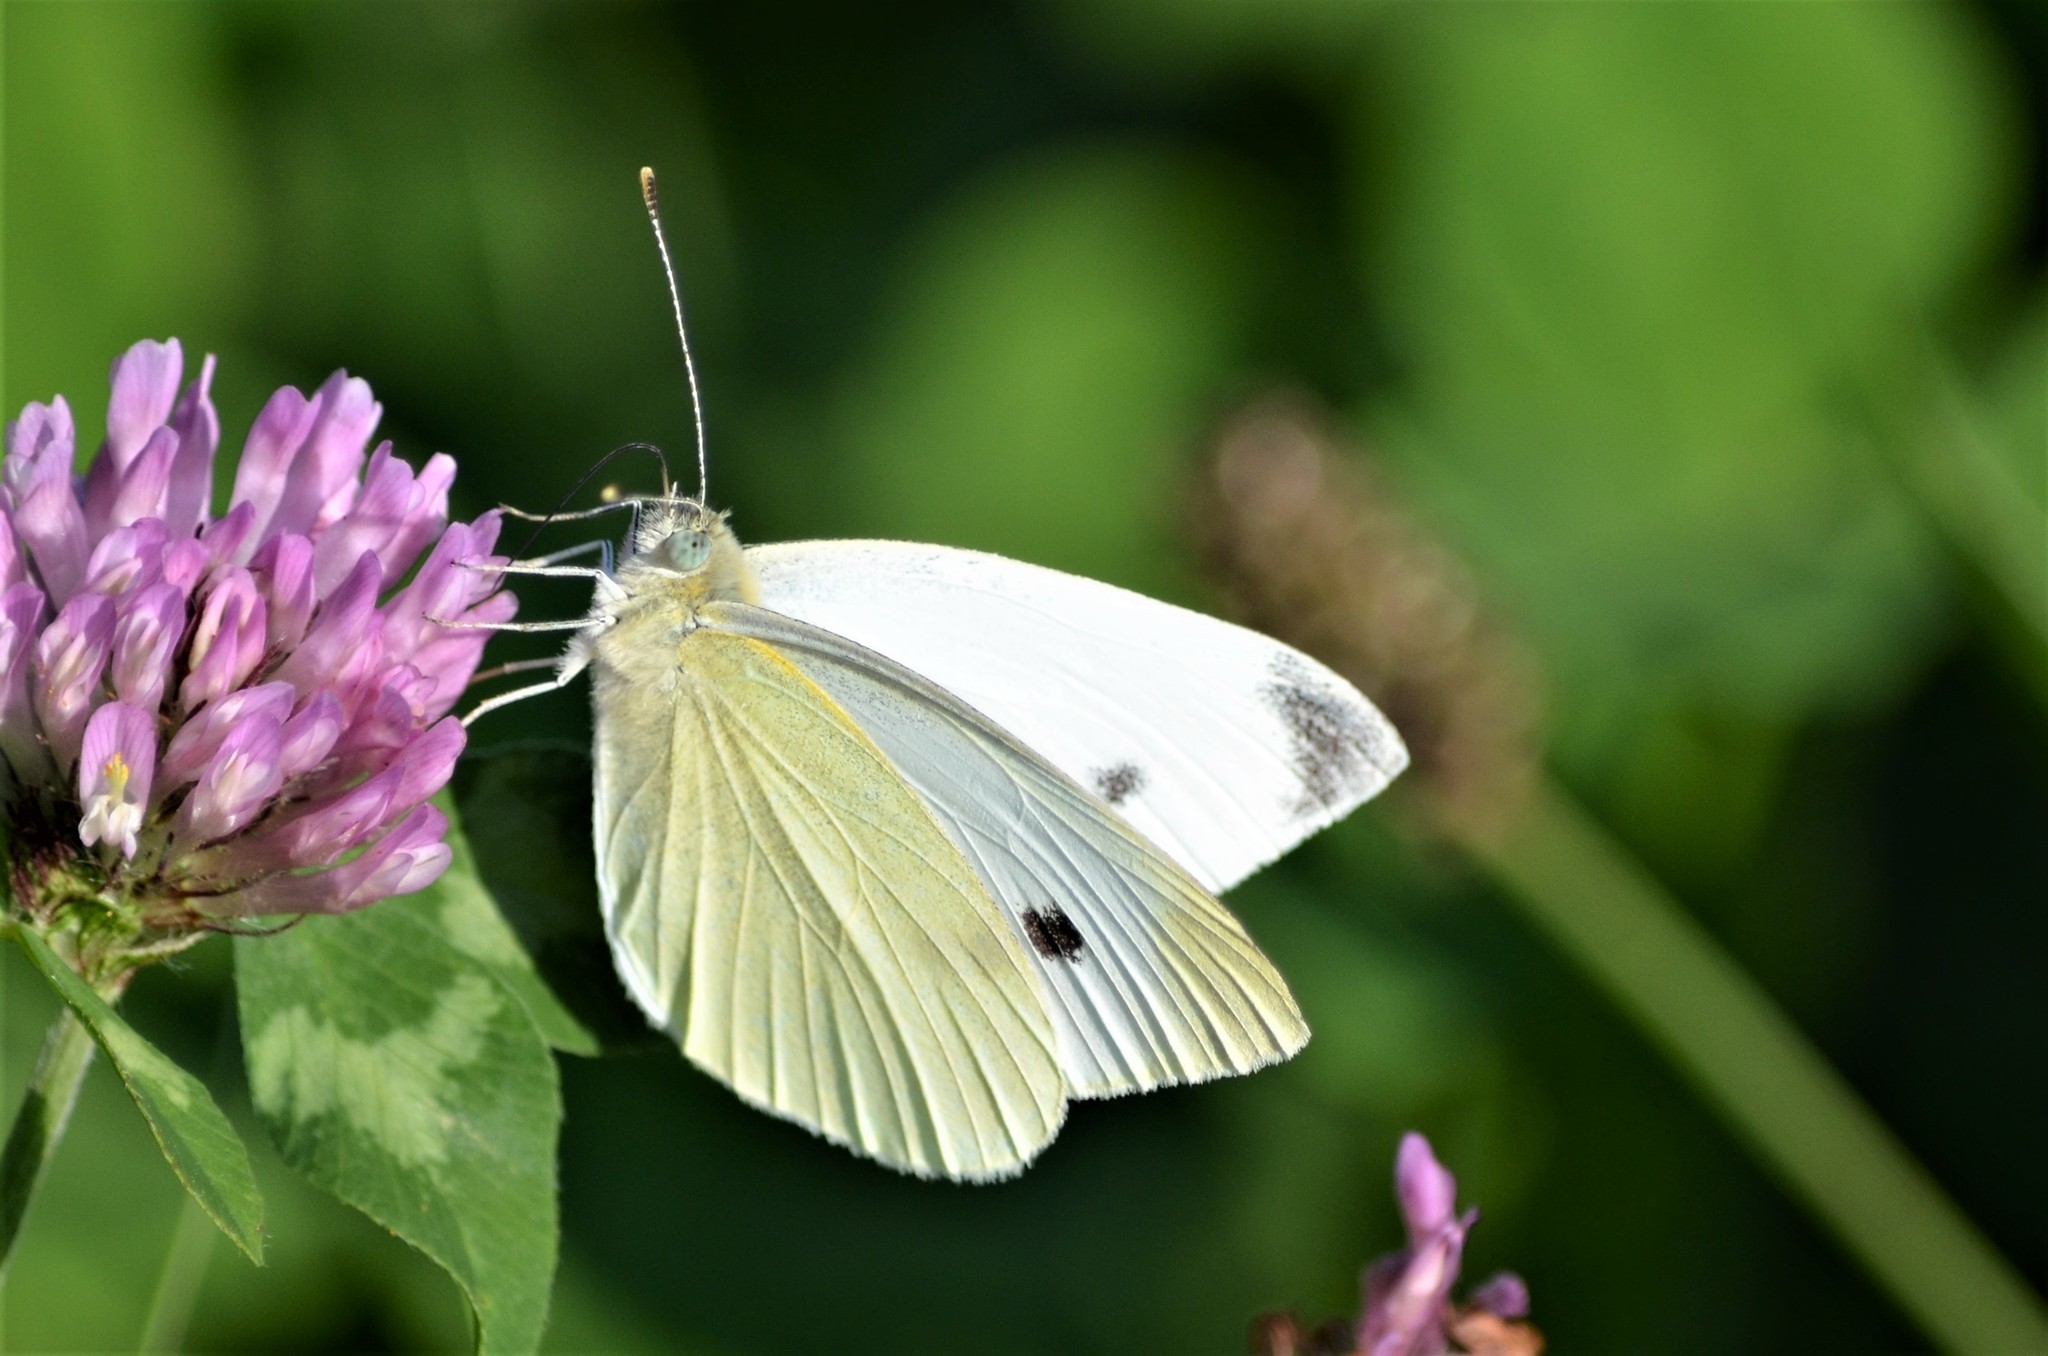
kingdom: Animalia
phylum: Arthropoda
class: Insecta
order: Lepidoptera
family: Pieridae
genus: Pieris
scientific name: Pieris rapae
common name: Small white
